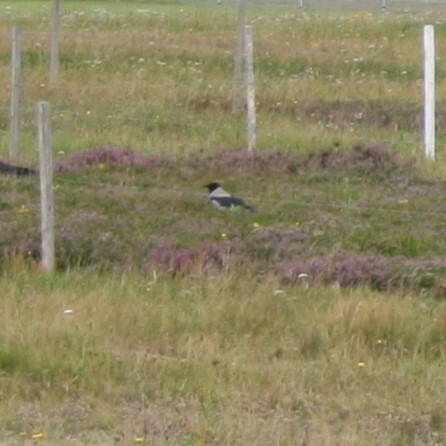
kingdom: Animalia
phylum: Chordata
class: Aves
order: Passeriformes
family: Corvidae
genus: Corvus
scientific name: Corvus cornix
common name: Hooded crow
